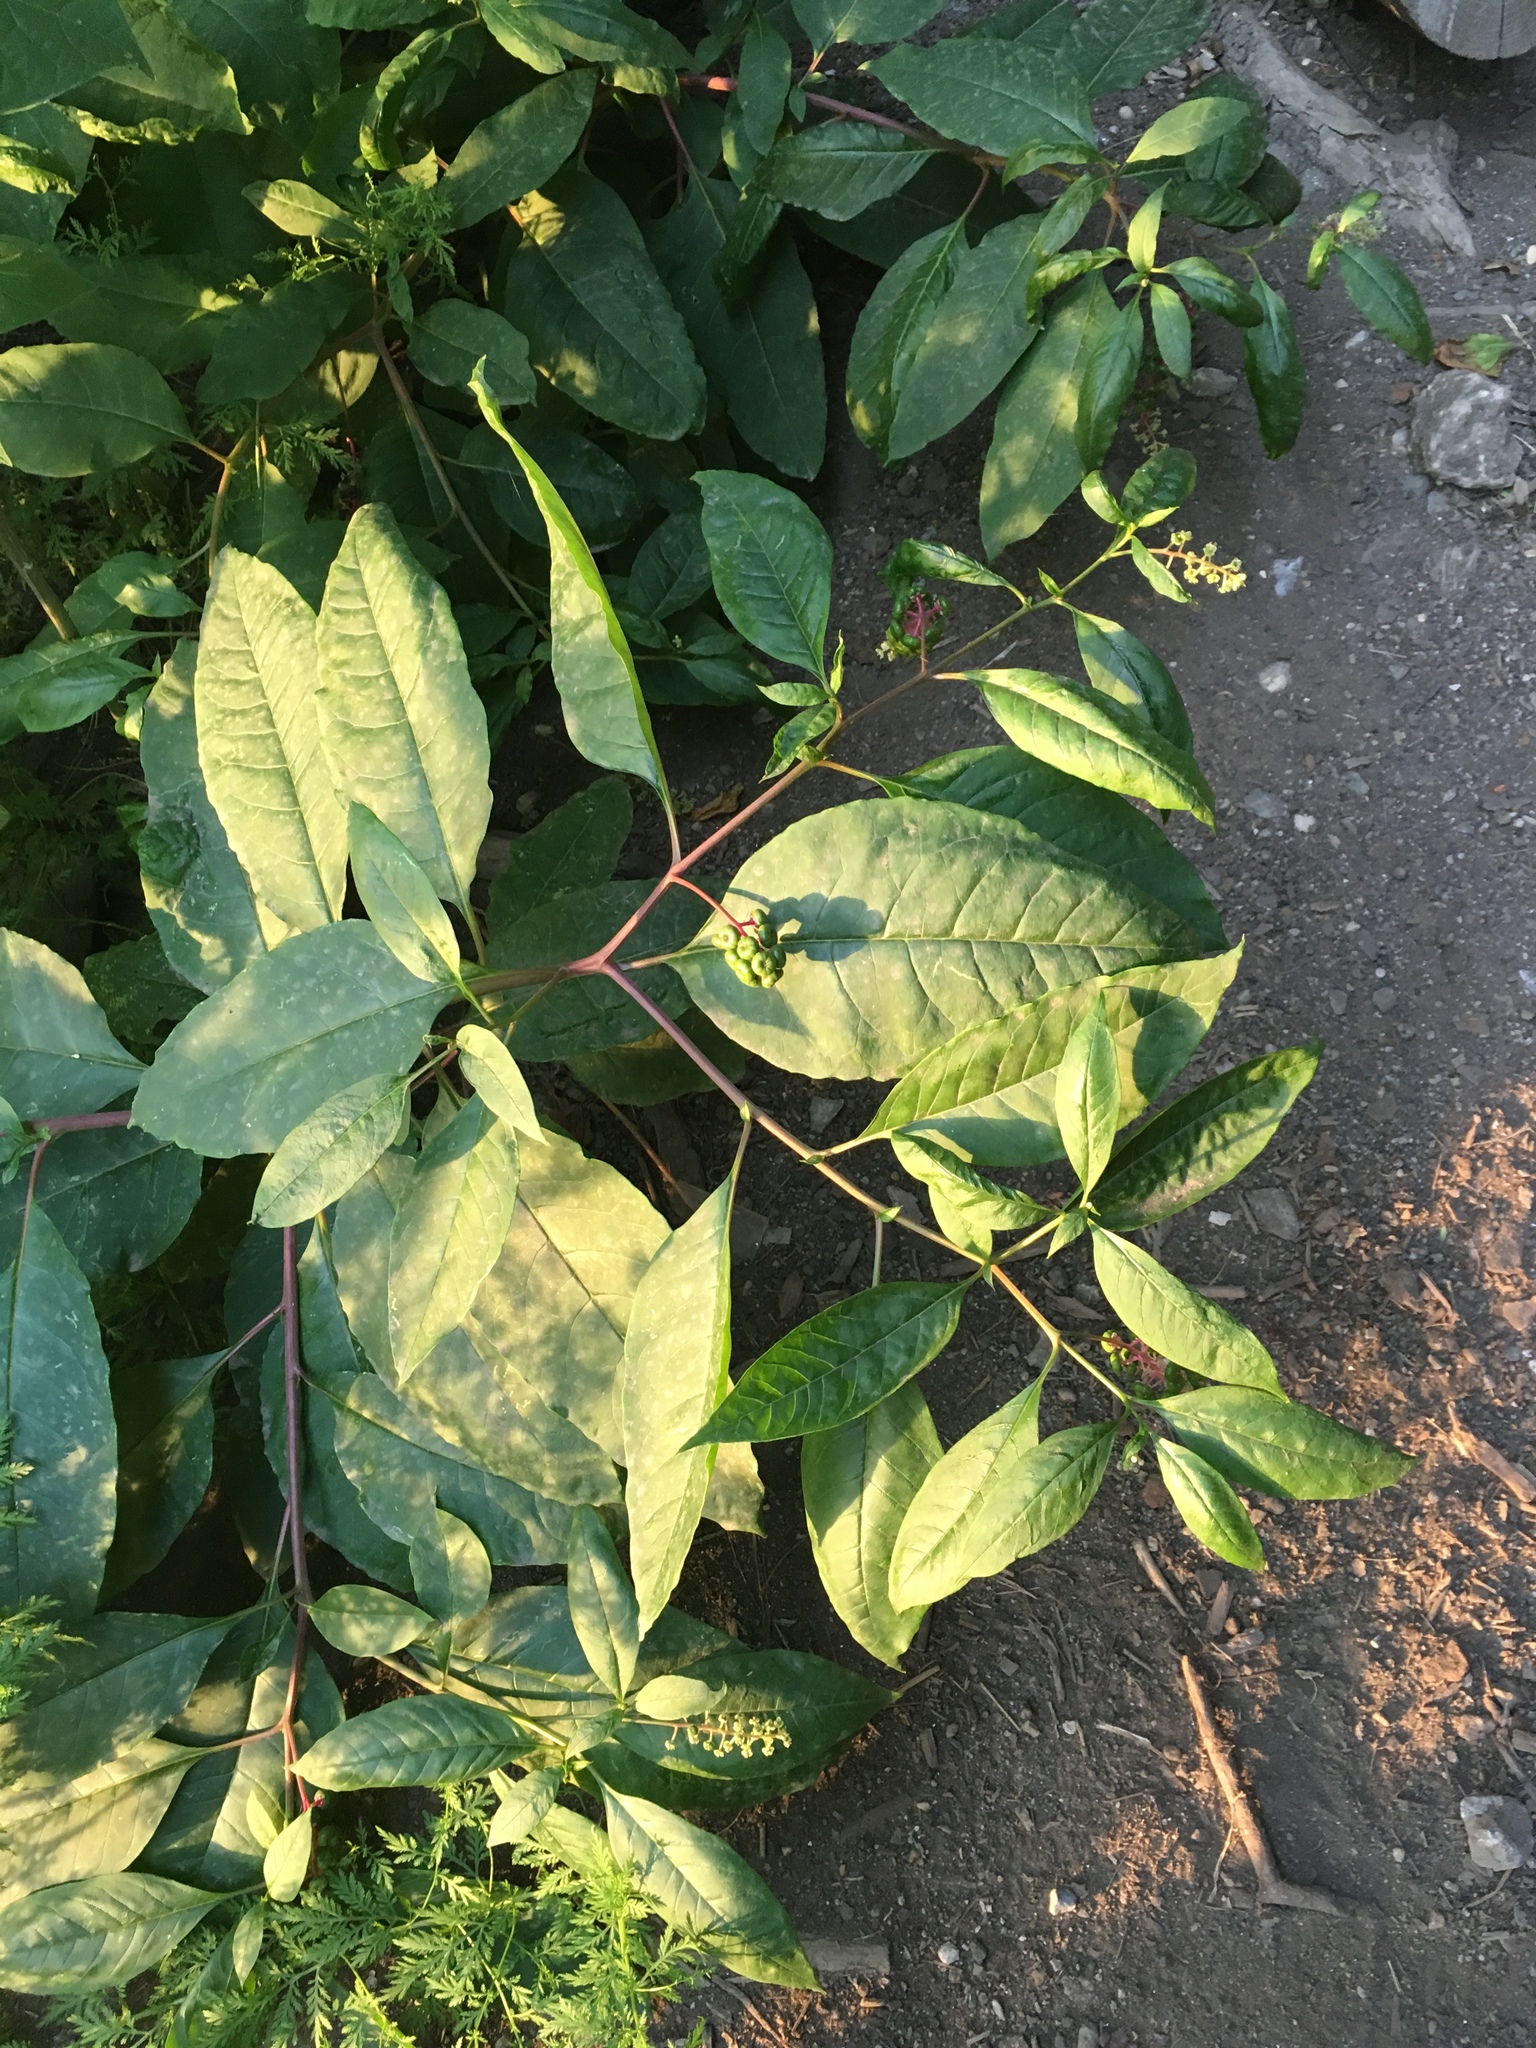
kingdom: Plantae
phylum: Tracheophyta
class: Magnoliopsida
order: Caryophyllales
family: Phytolaccaceae
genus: Phytolacca
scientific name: Phytolacca americana
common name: American pokeweed
